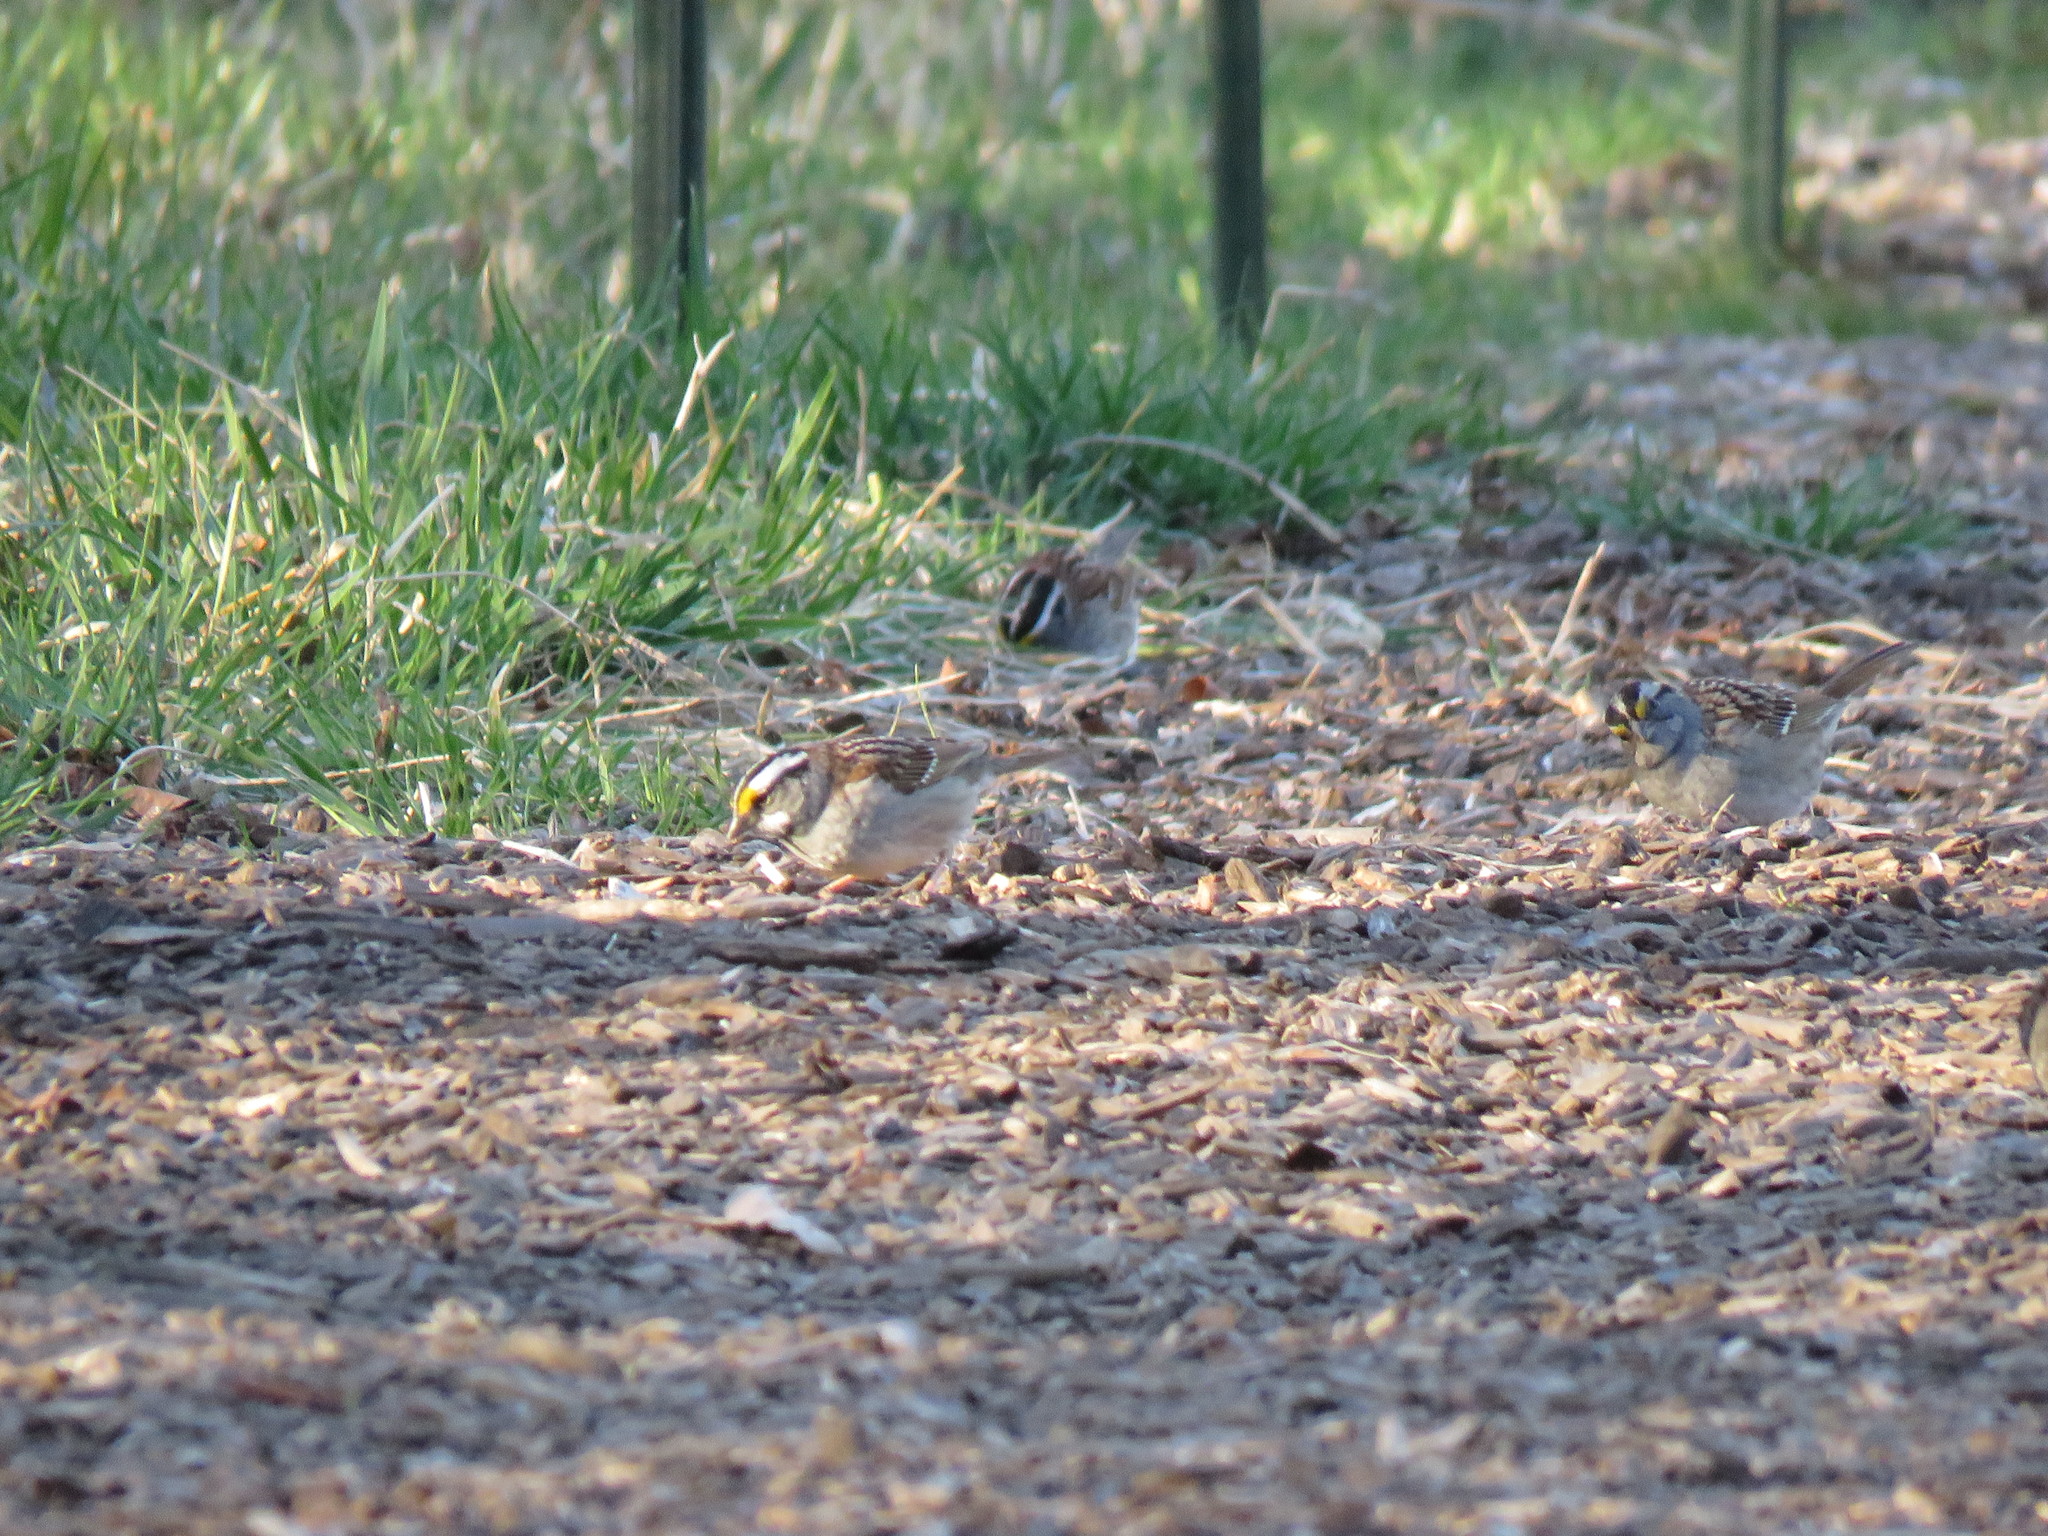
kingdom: Animalia
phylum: Chordata
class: Aves
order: Passeriformes
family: Passerellidae
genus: Zonotrichia
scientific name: Zonotrichia albicollis
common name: White-throated sparrow
